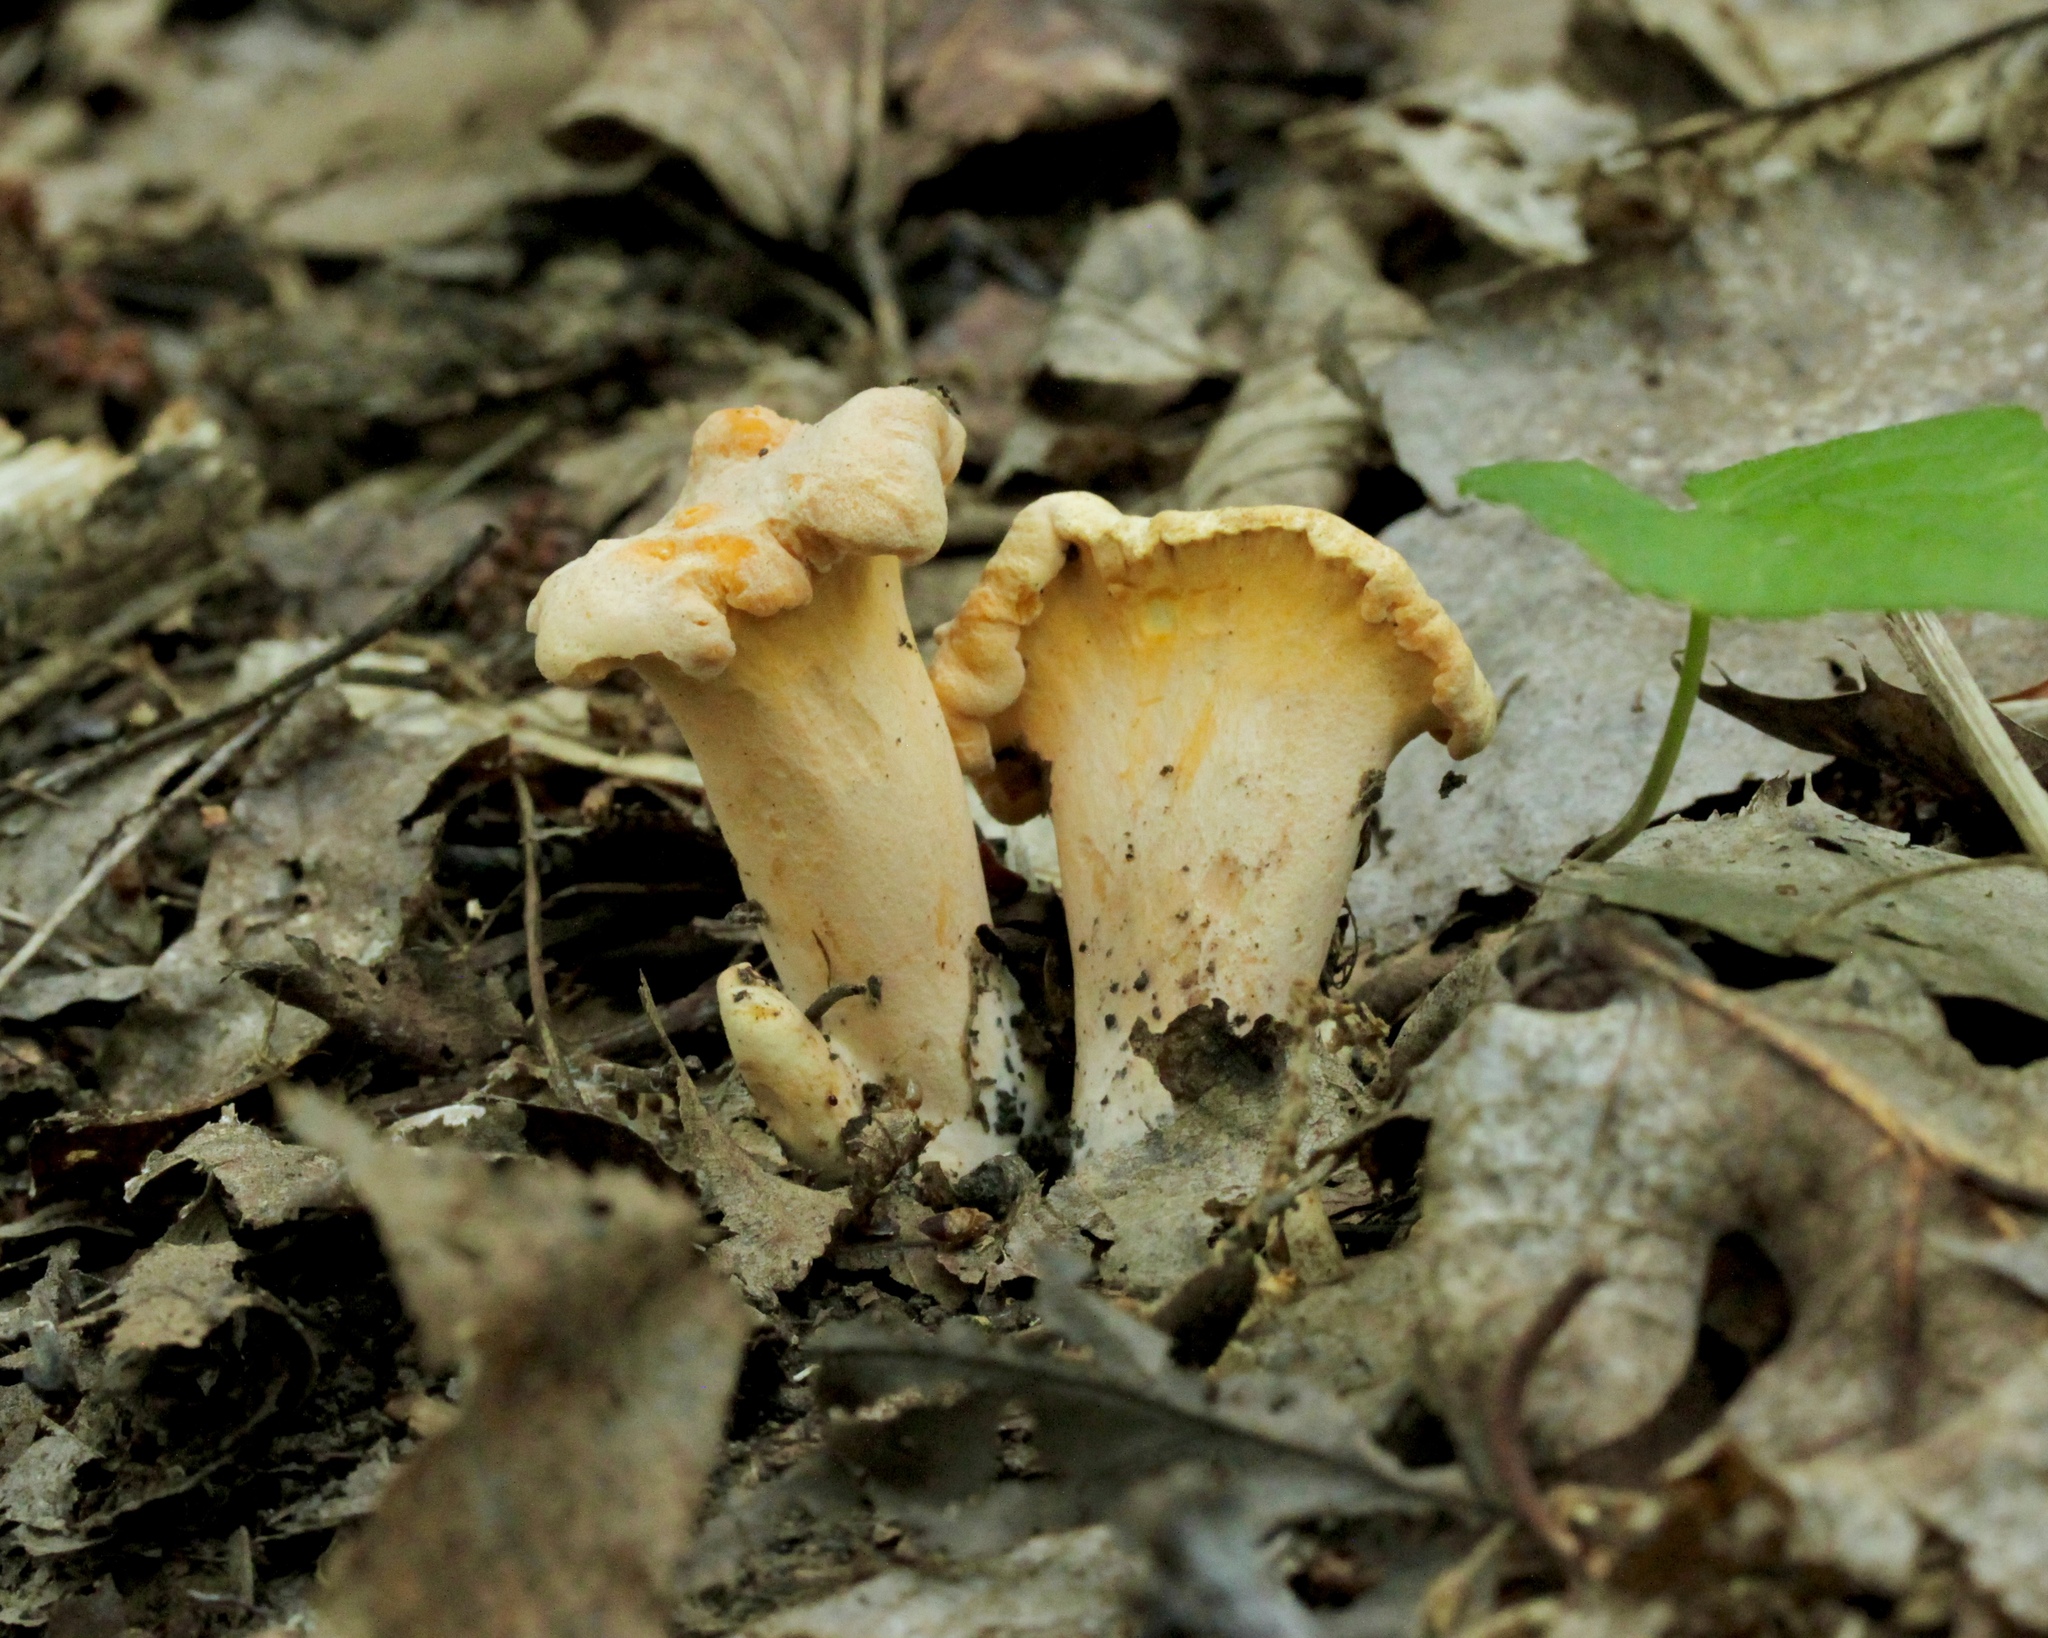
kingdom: Fungi
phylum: Basidiomycota
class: Agaricomycetes
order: Cantharellales
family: Hydnaceae
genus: Cantharellus
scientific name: Cantharellus lateritius
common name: Smooth chanterelle
